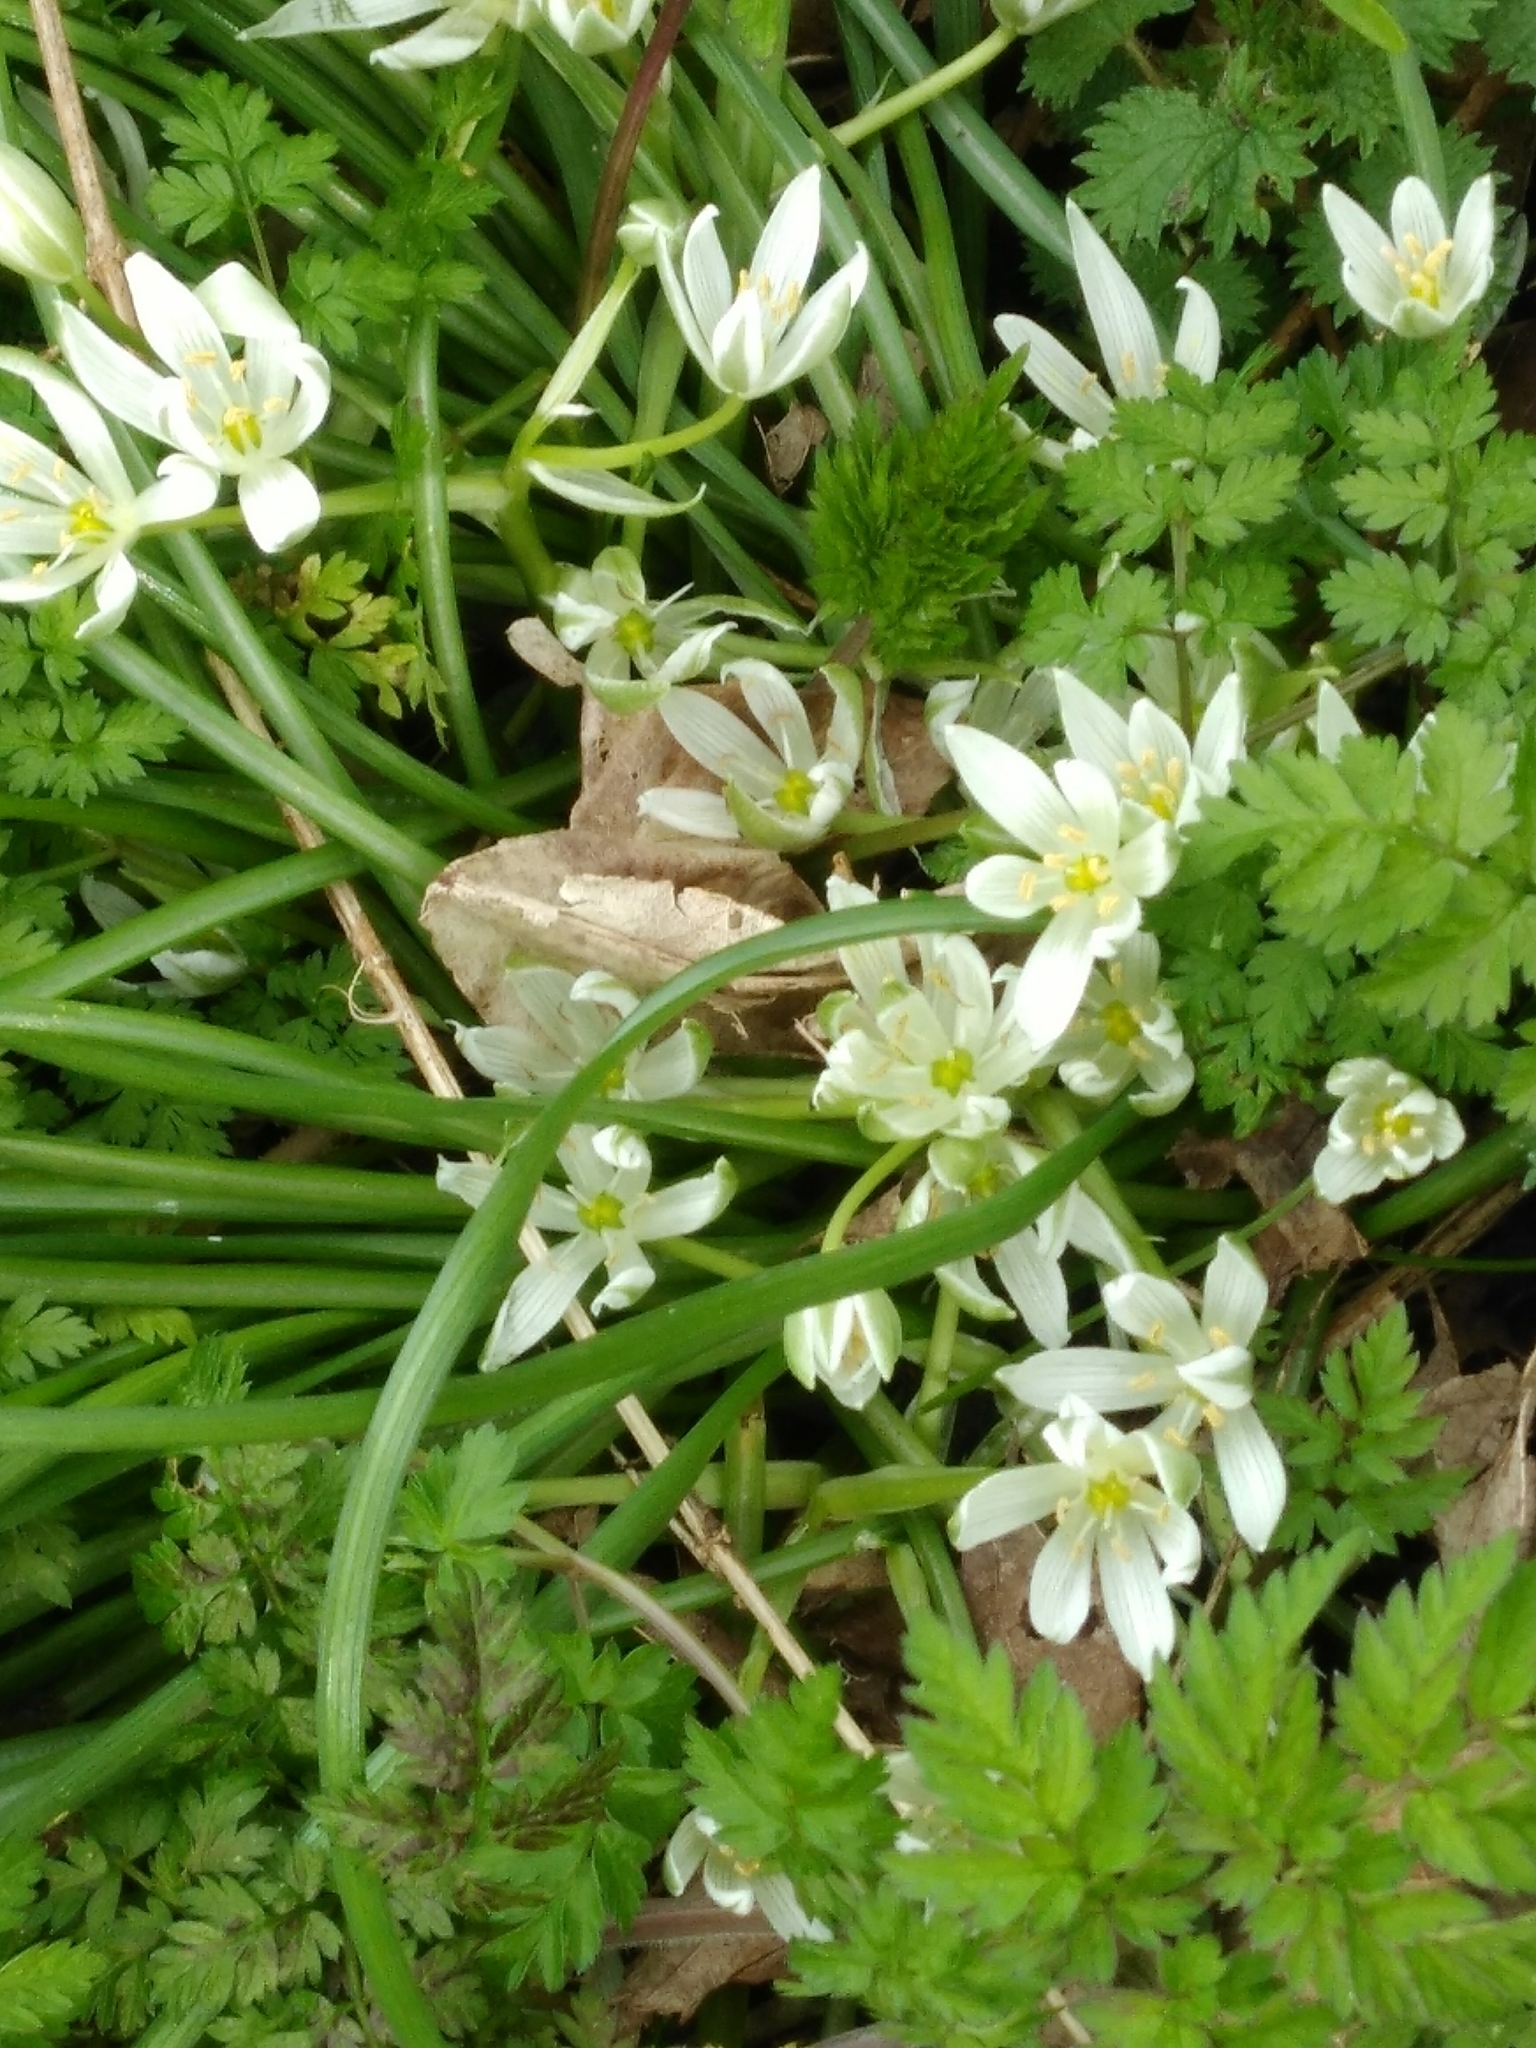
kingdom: Plantae
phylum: Tracheophyta
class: Liliopsida
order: Asparagales
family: Asparagaceae
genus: Ornithogalum
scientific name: Ornithogalum umbellatum
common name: Garden star-of-bethlehem
